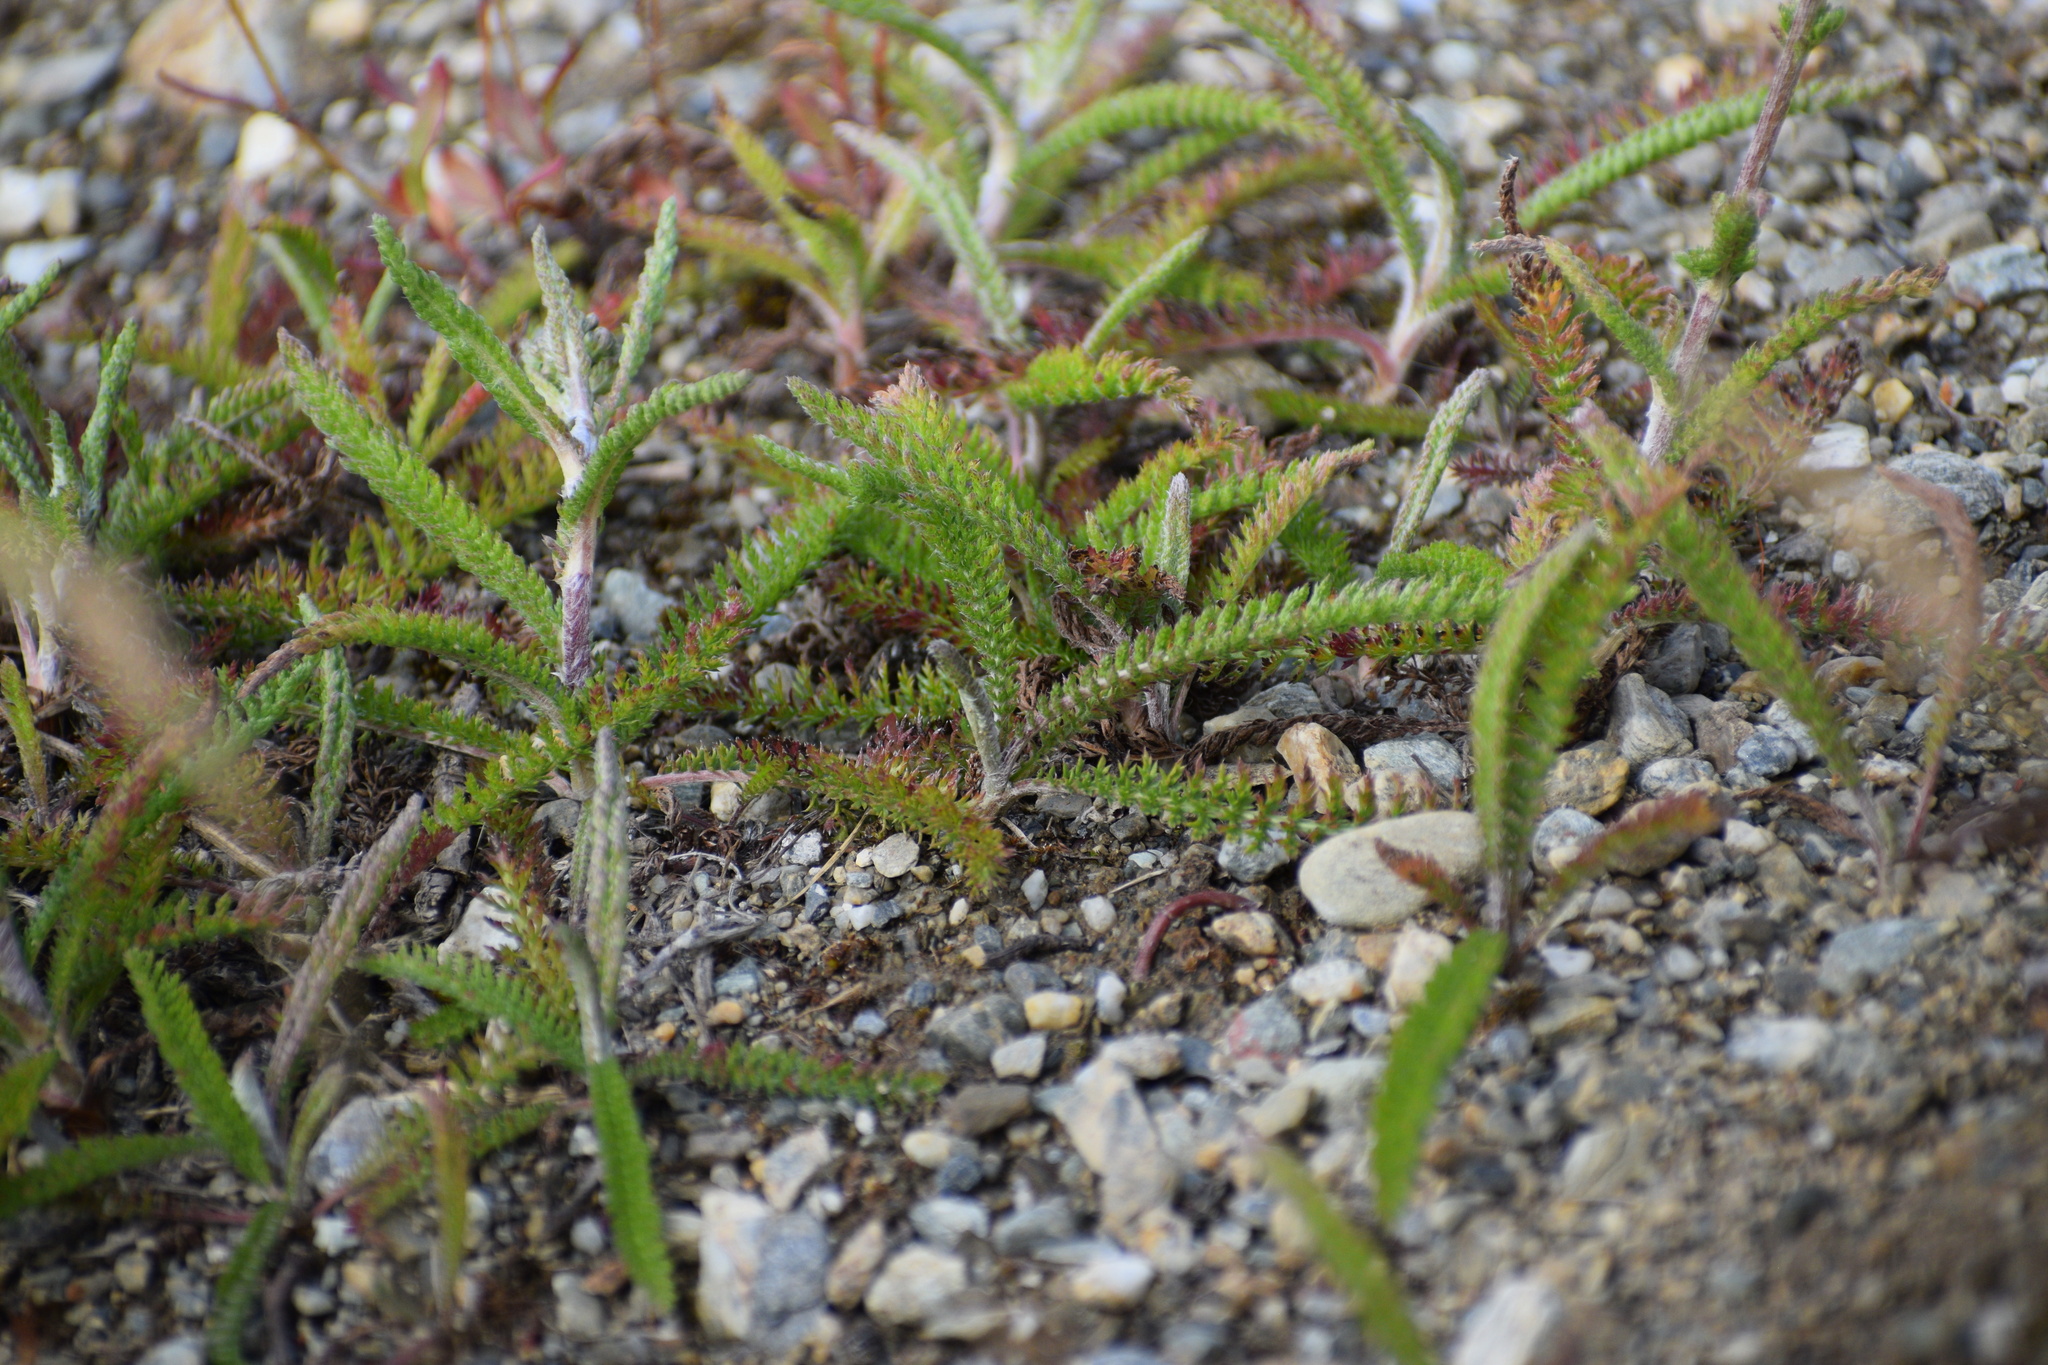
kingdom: Plantae
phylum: Tracheophyta
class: Magnoliopsida
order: Asterales
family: Asteraceae
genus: Achillea
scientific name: Achillea millefolium
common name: Yarrow
